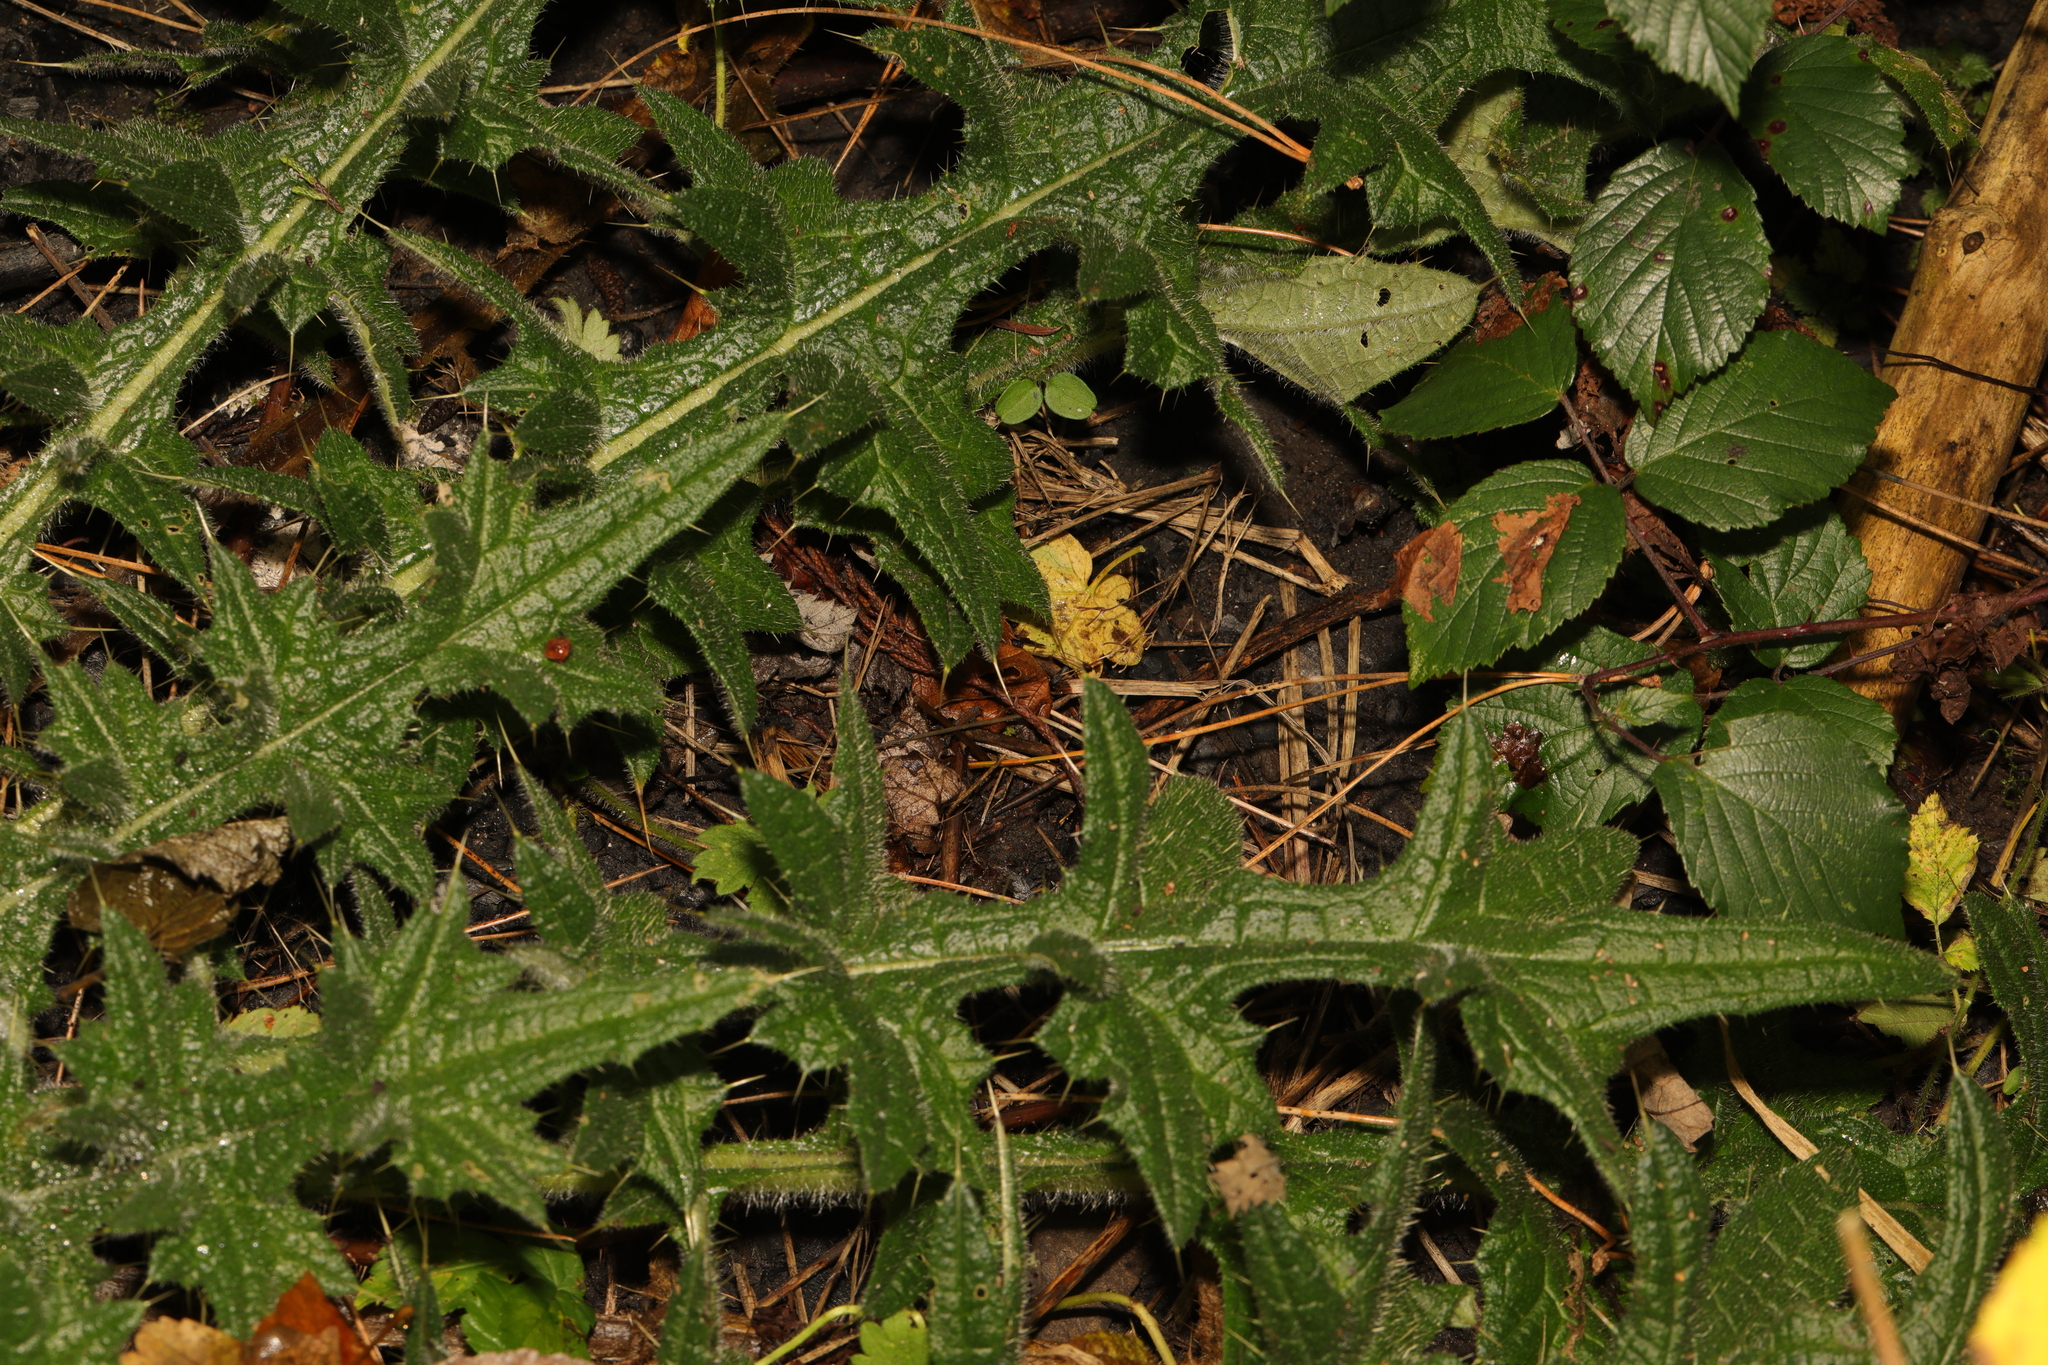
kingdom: Plantae
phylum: Tracheophyta
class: Magnoliopsida
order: Asterales
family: Asteraceae
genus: Cirsium
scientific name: Cirsium vulgare
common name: Bull thistle
